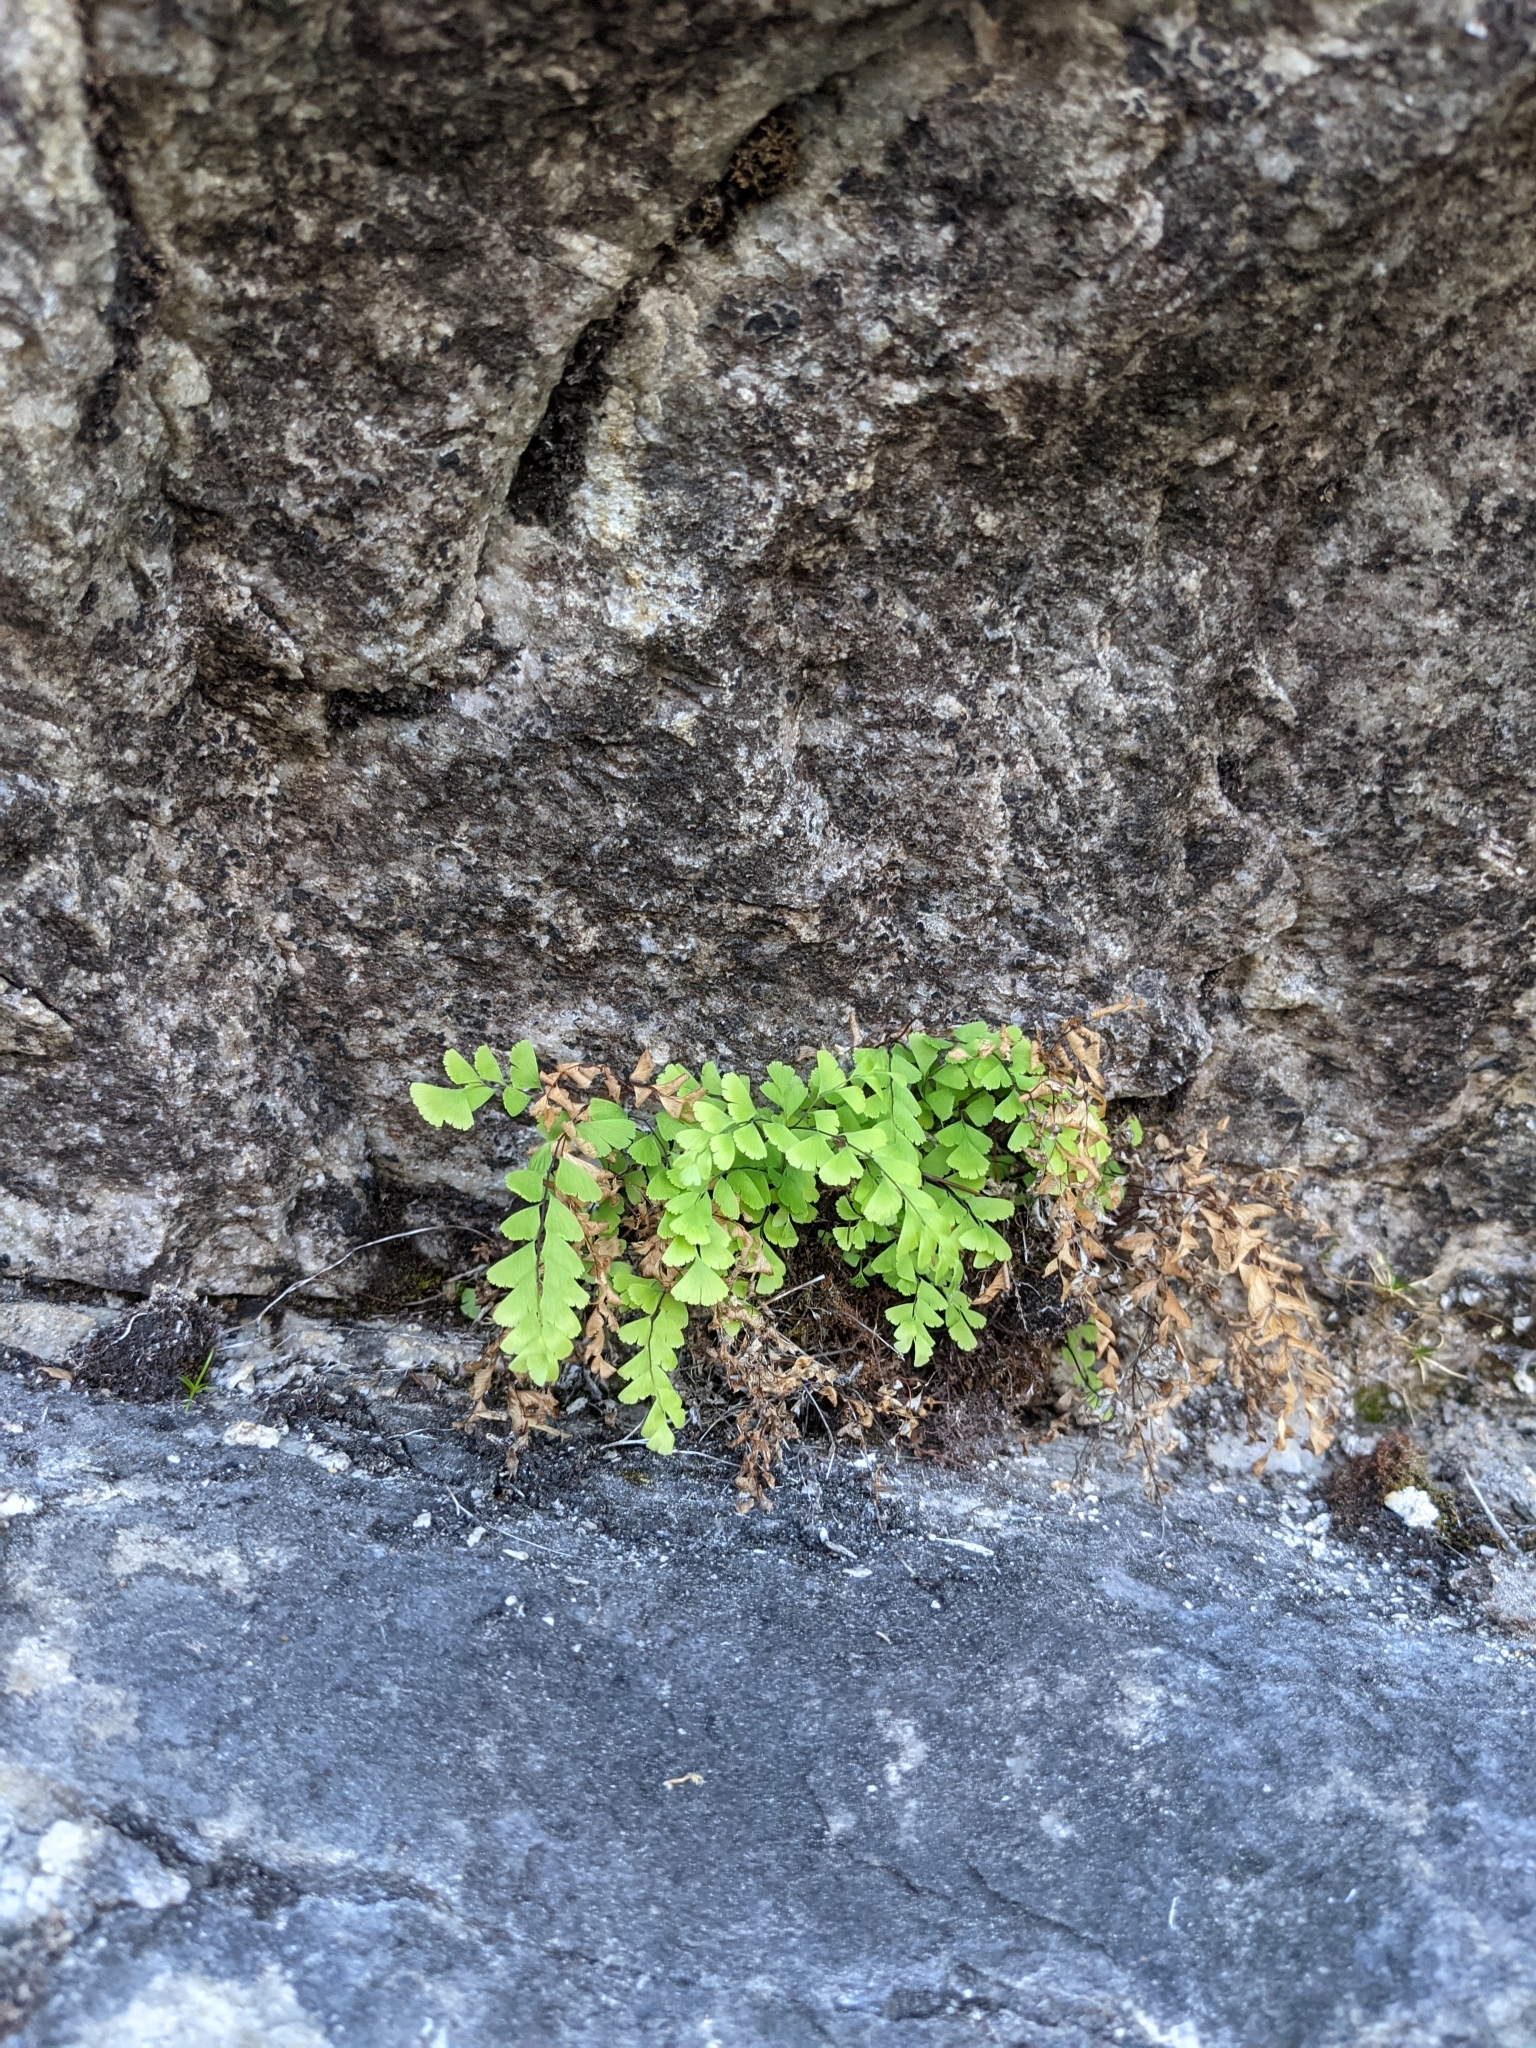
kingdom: Plantae
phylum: Tracheophyta
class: Polypodiopsida
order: Polypodiales
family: Pteridaceae
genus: Adiantum
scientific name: Adiantum aleuticum
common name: Aleutian maidenhair fern
